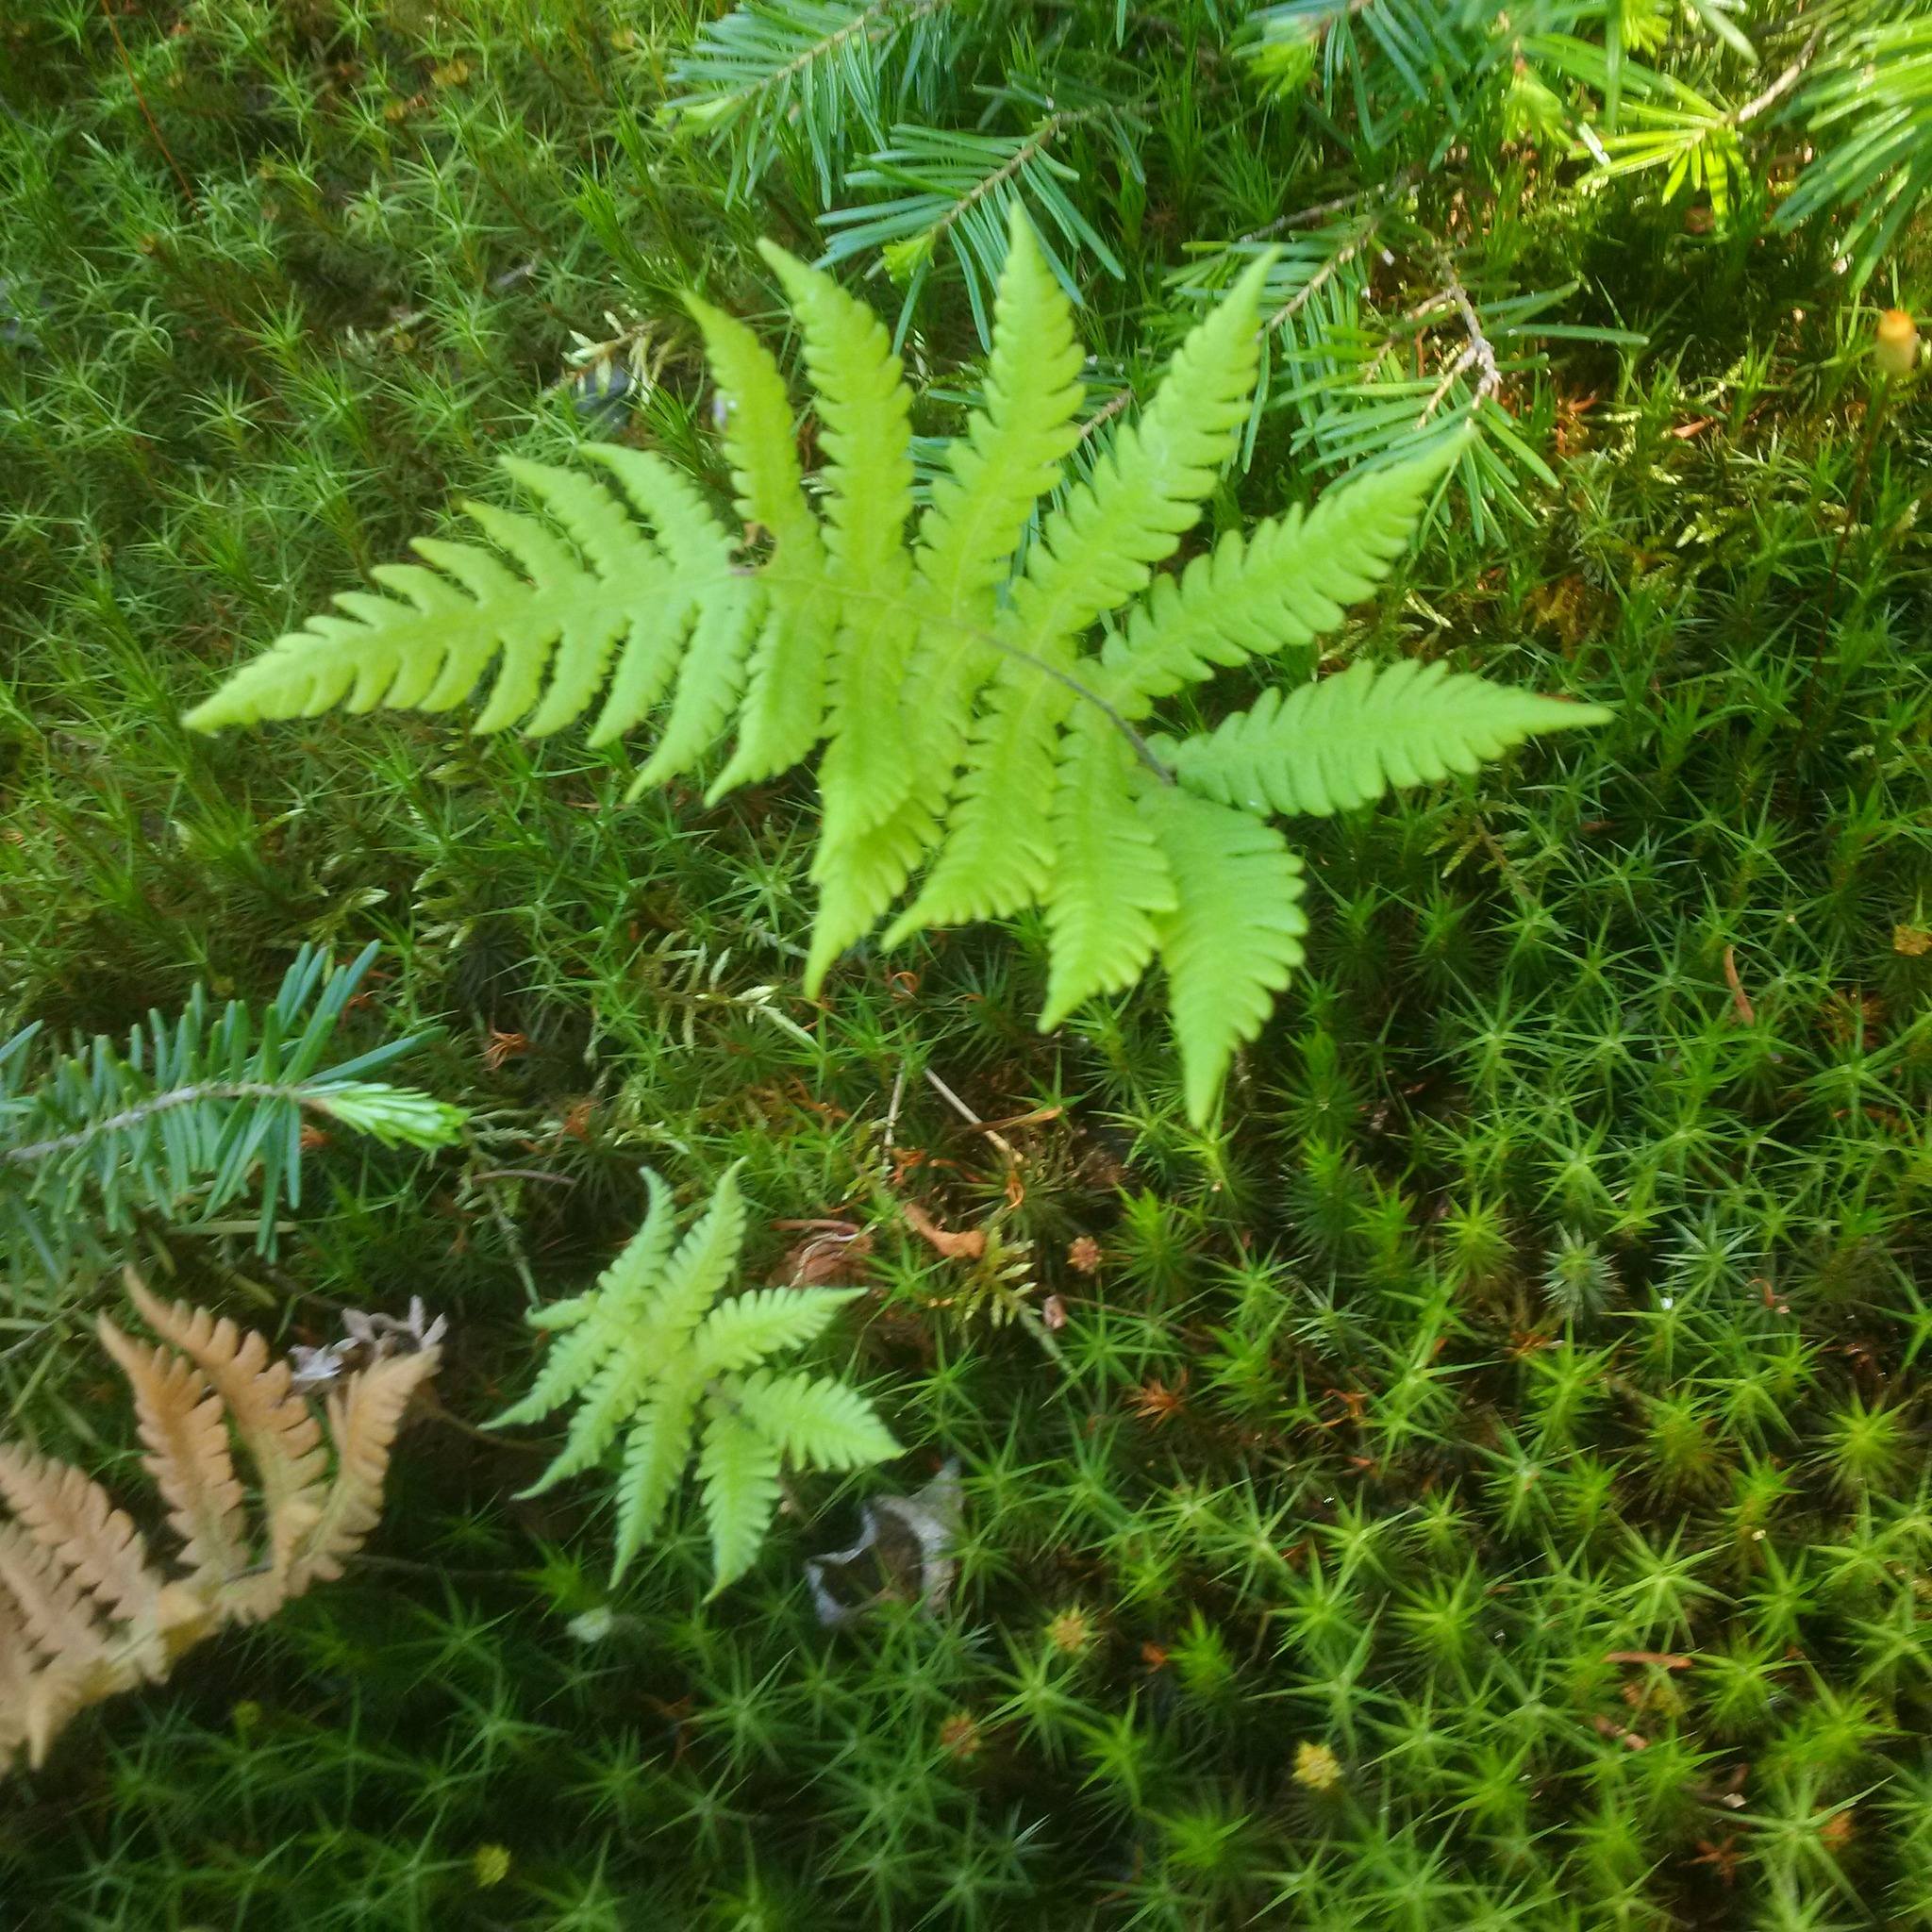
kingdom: Plantae
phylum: Tracheophyta
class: Polypodiopsida
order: Polypodiales
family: Thelypteridaceae
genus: Phegopteris
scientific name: Phegopteris connectilis
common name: Beech fern
